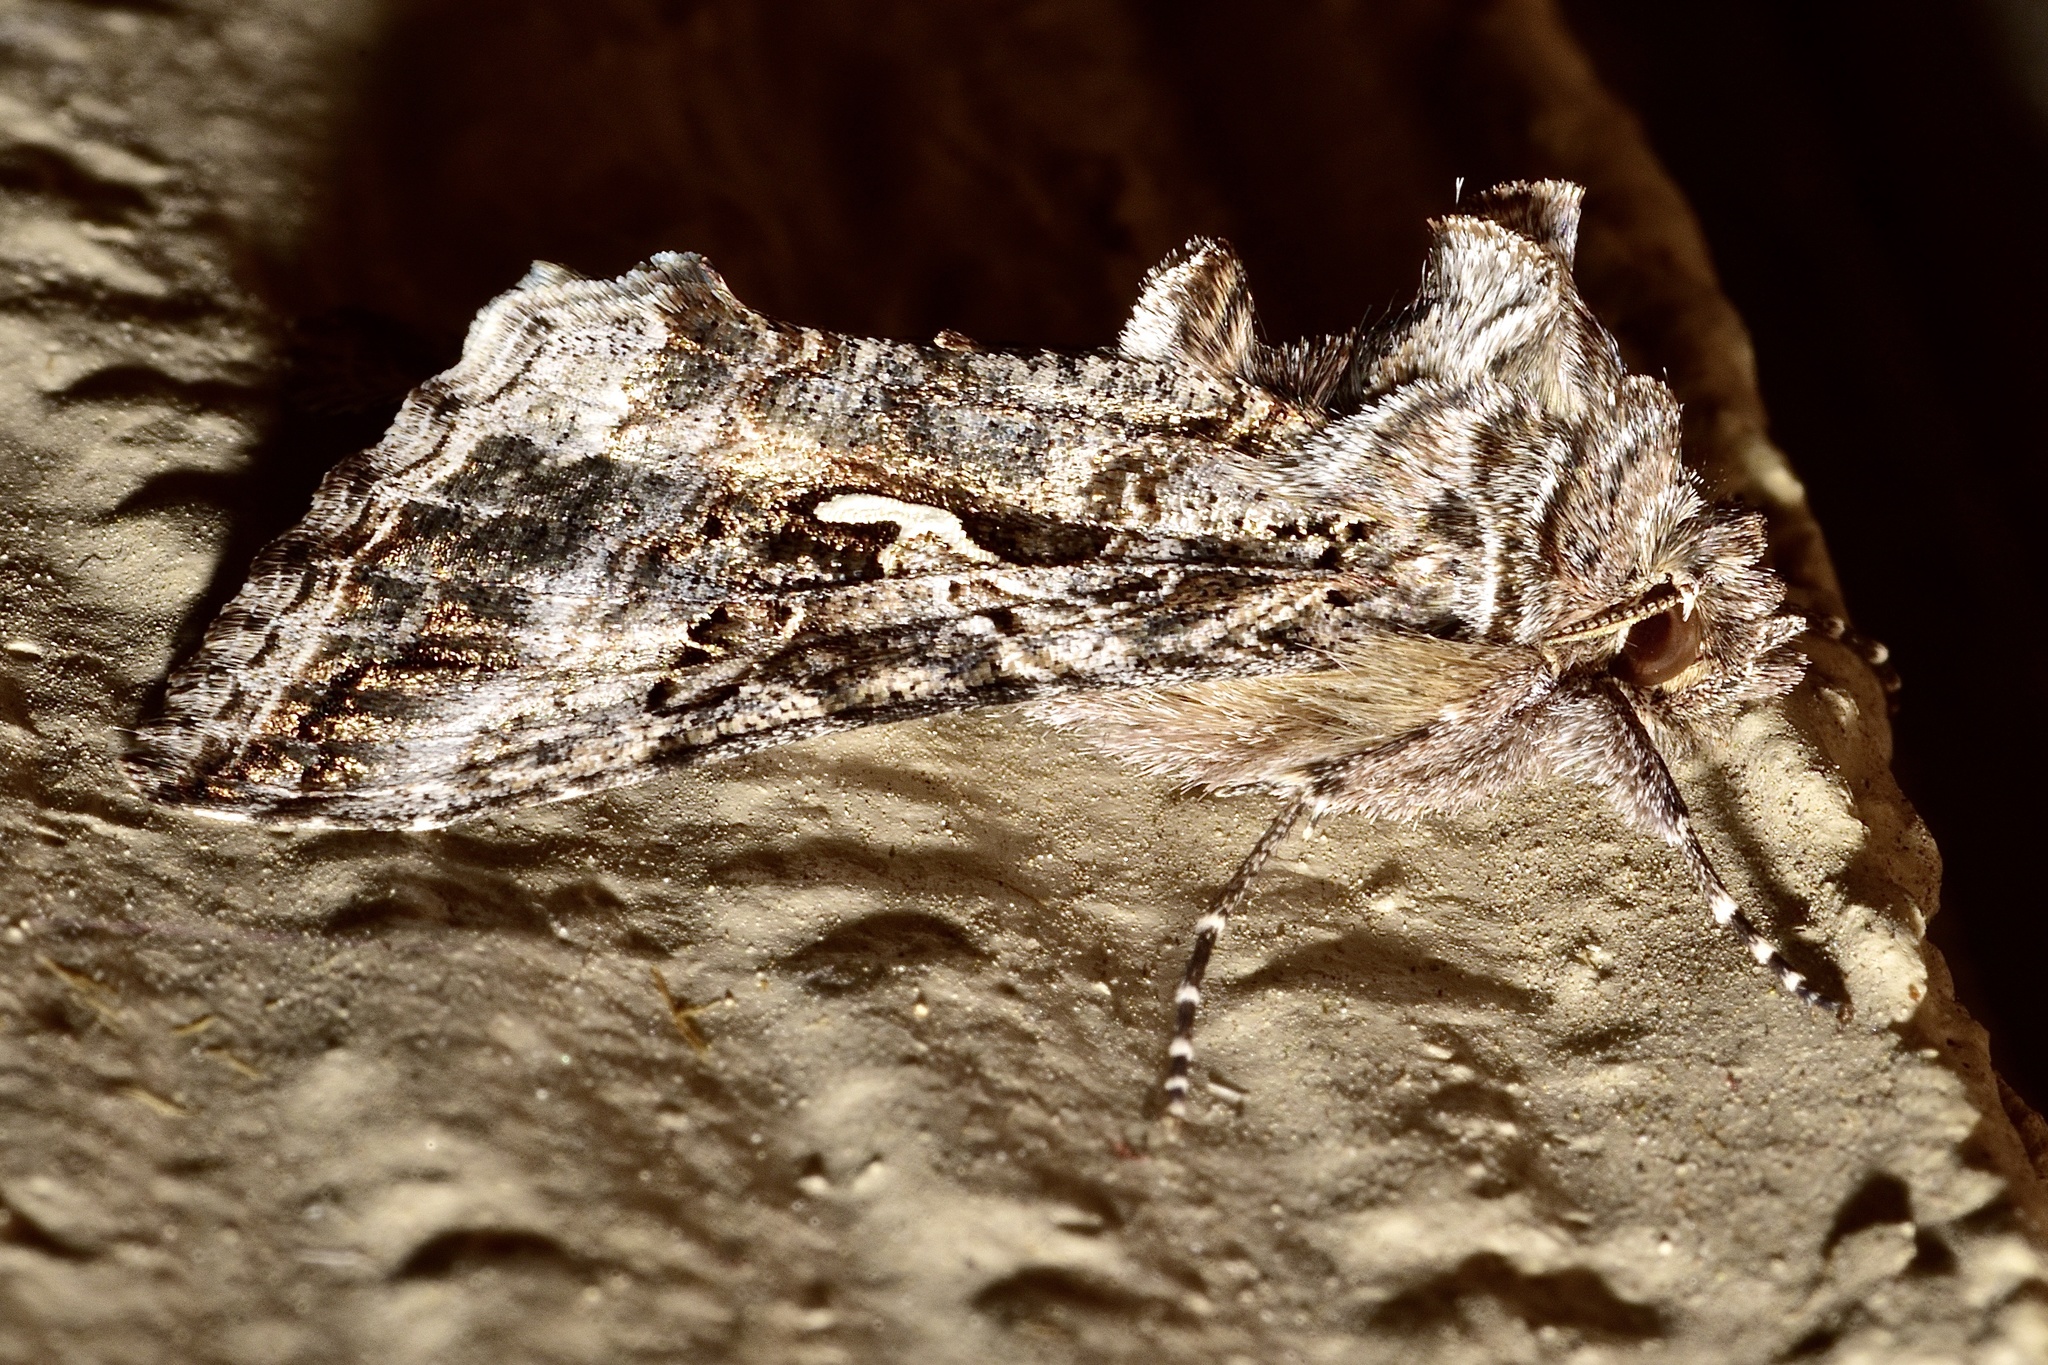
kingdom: Animalia
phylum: Arthropoda
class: Insecta
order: Lepidoptera
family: Noctuidae
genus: Autographa
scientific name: Autographa californica
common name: Alfalfa looper
